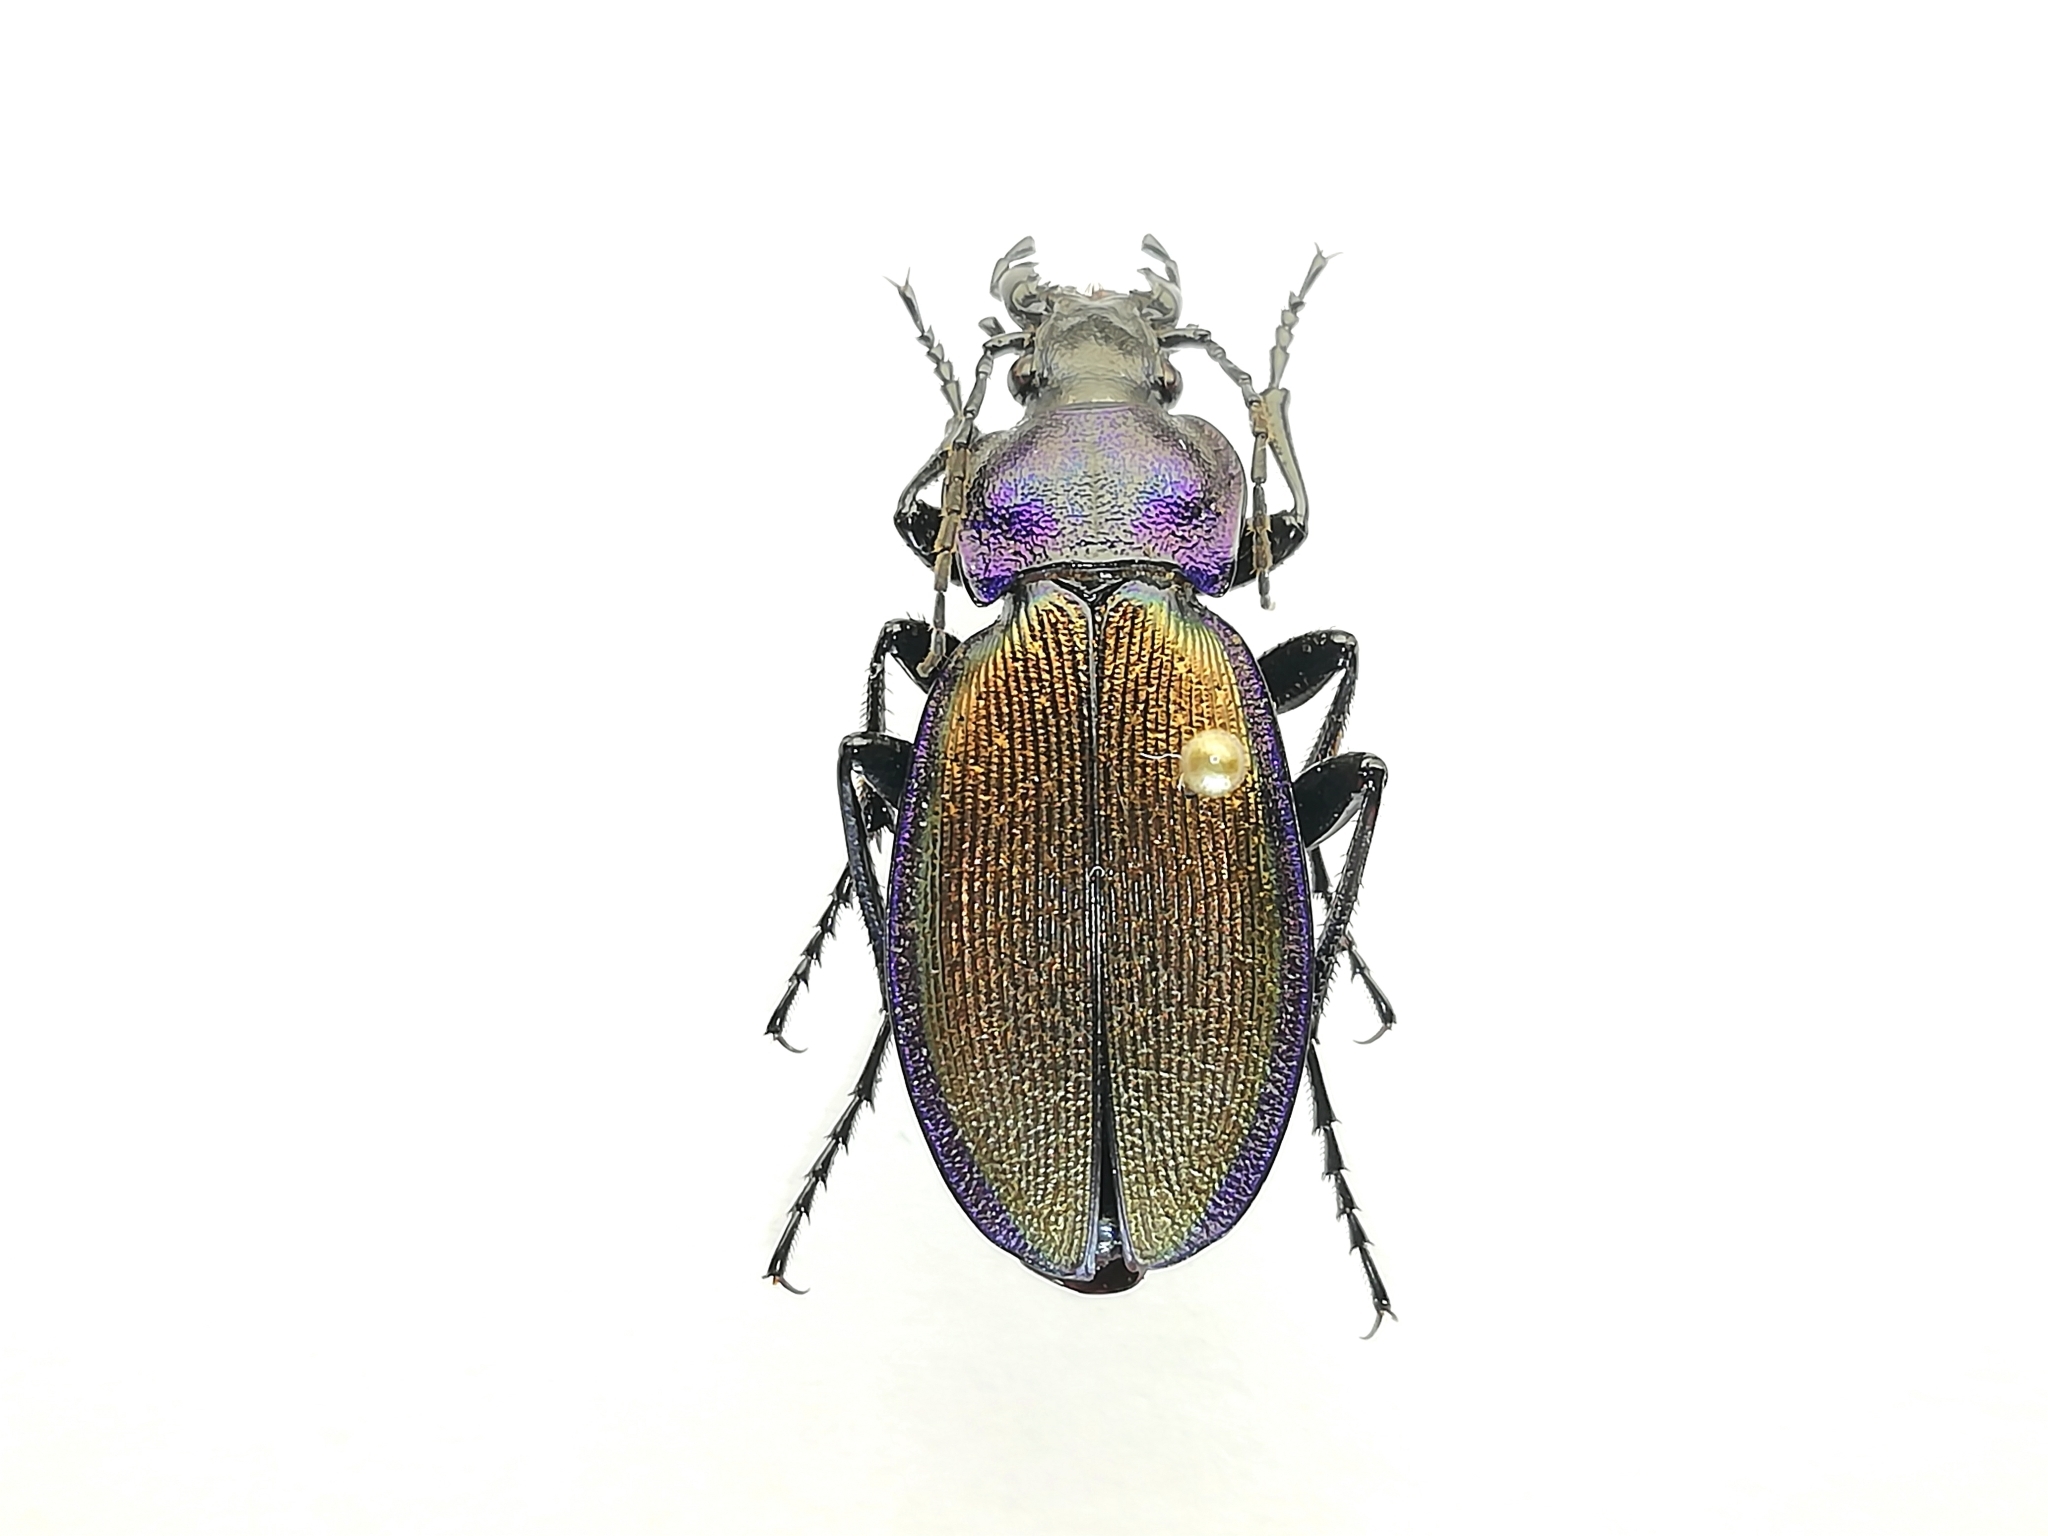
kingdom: Animalia
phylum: Arthropoda
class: Insecta
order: Coleoptera
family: Carabidae
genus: Carabus
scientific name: Carabus regalis
